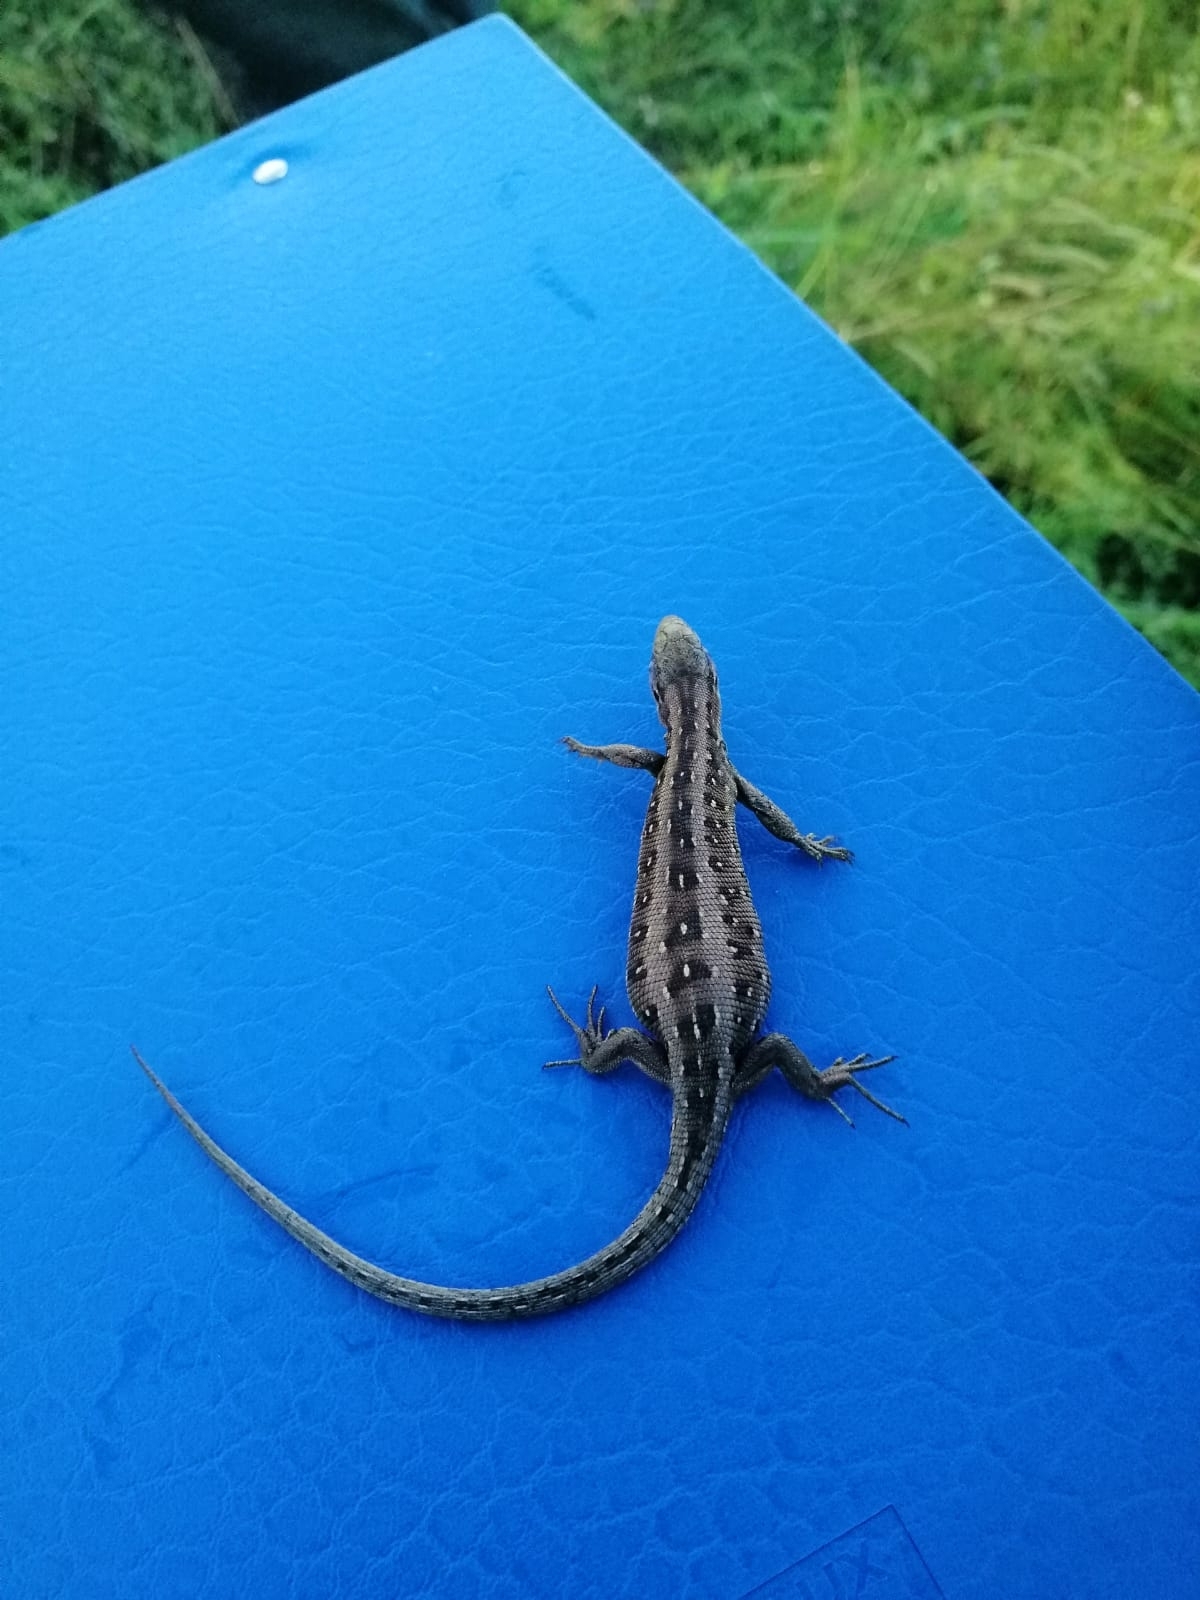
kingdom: Animalia
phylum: Chordata
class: Squamata
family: Lacertidae
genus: Lacerta
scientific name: Lacerta agilis
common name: Sand lizard
